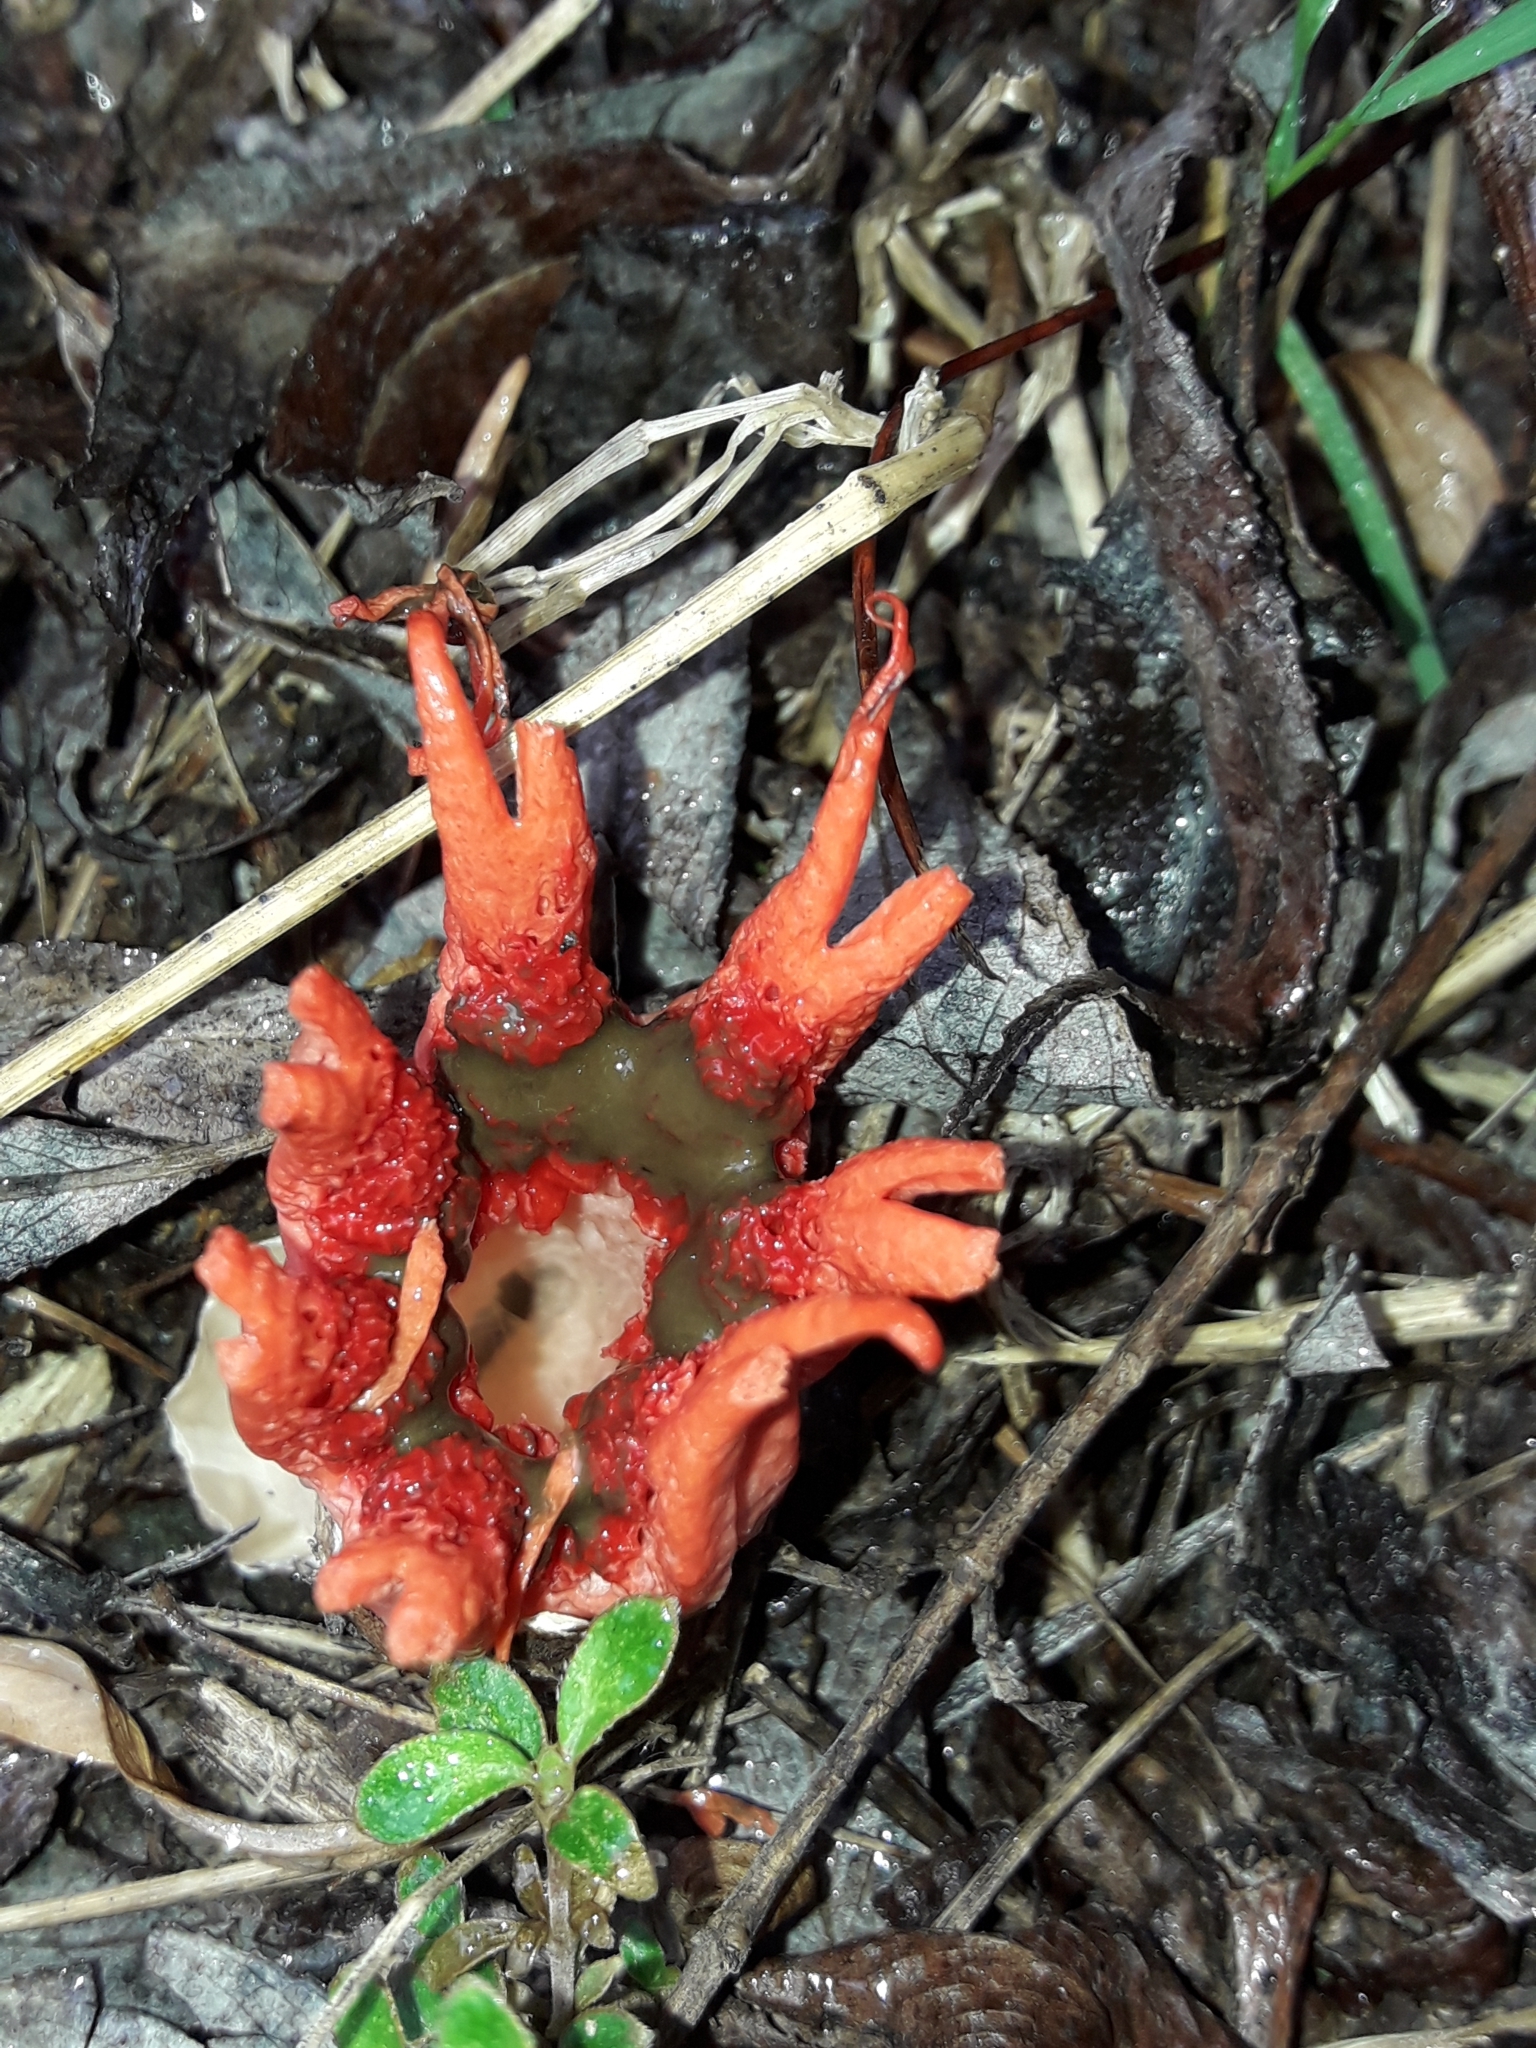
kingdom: Fungi
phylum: Basidiomycota
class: Agaricomycetes
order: Phallales
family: Phallaceae
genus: Aseroe
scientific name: Aseroe rubra
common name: Starfish fungus
